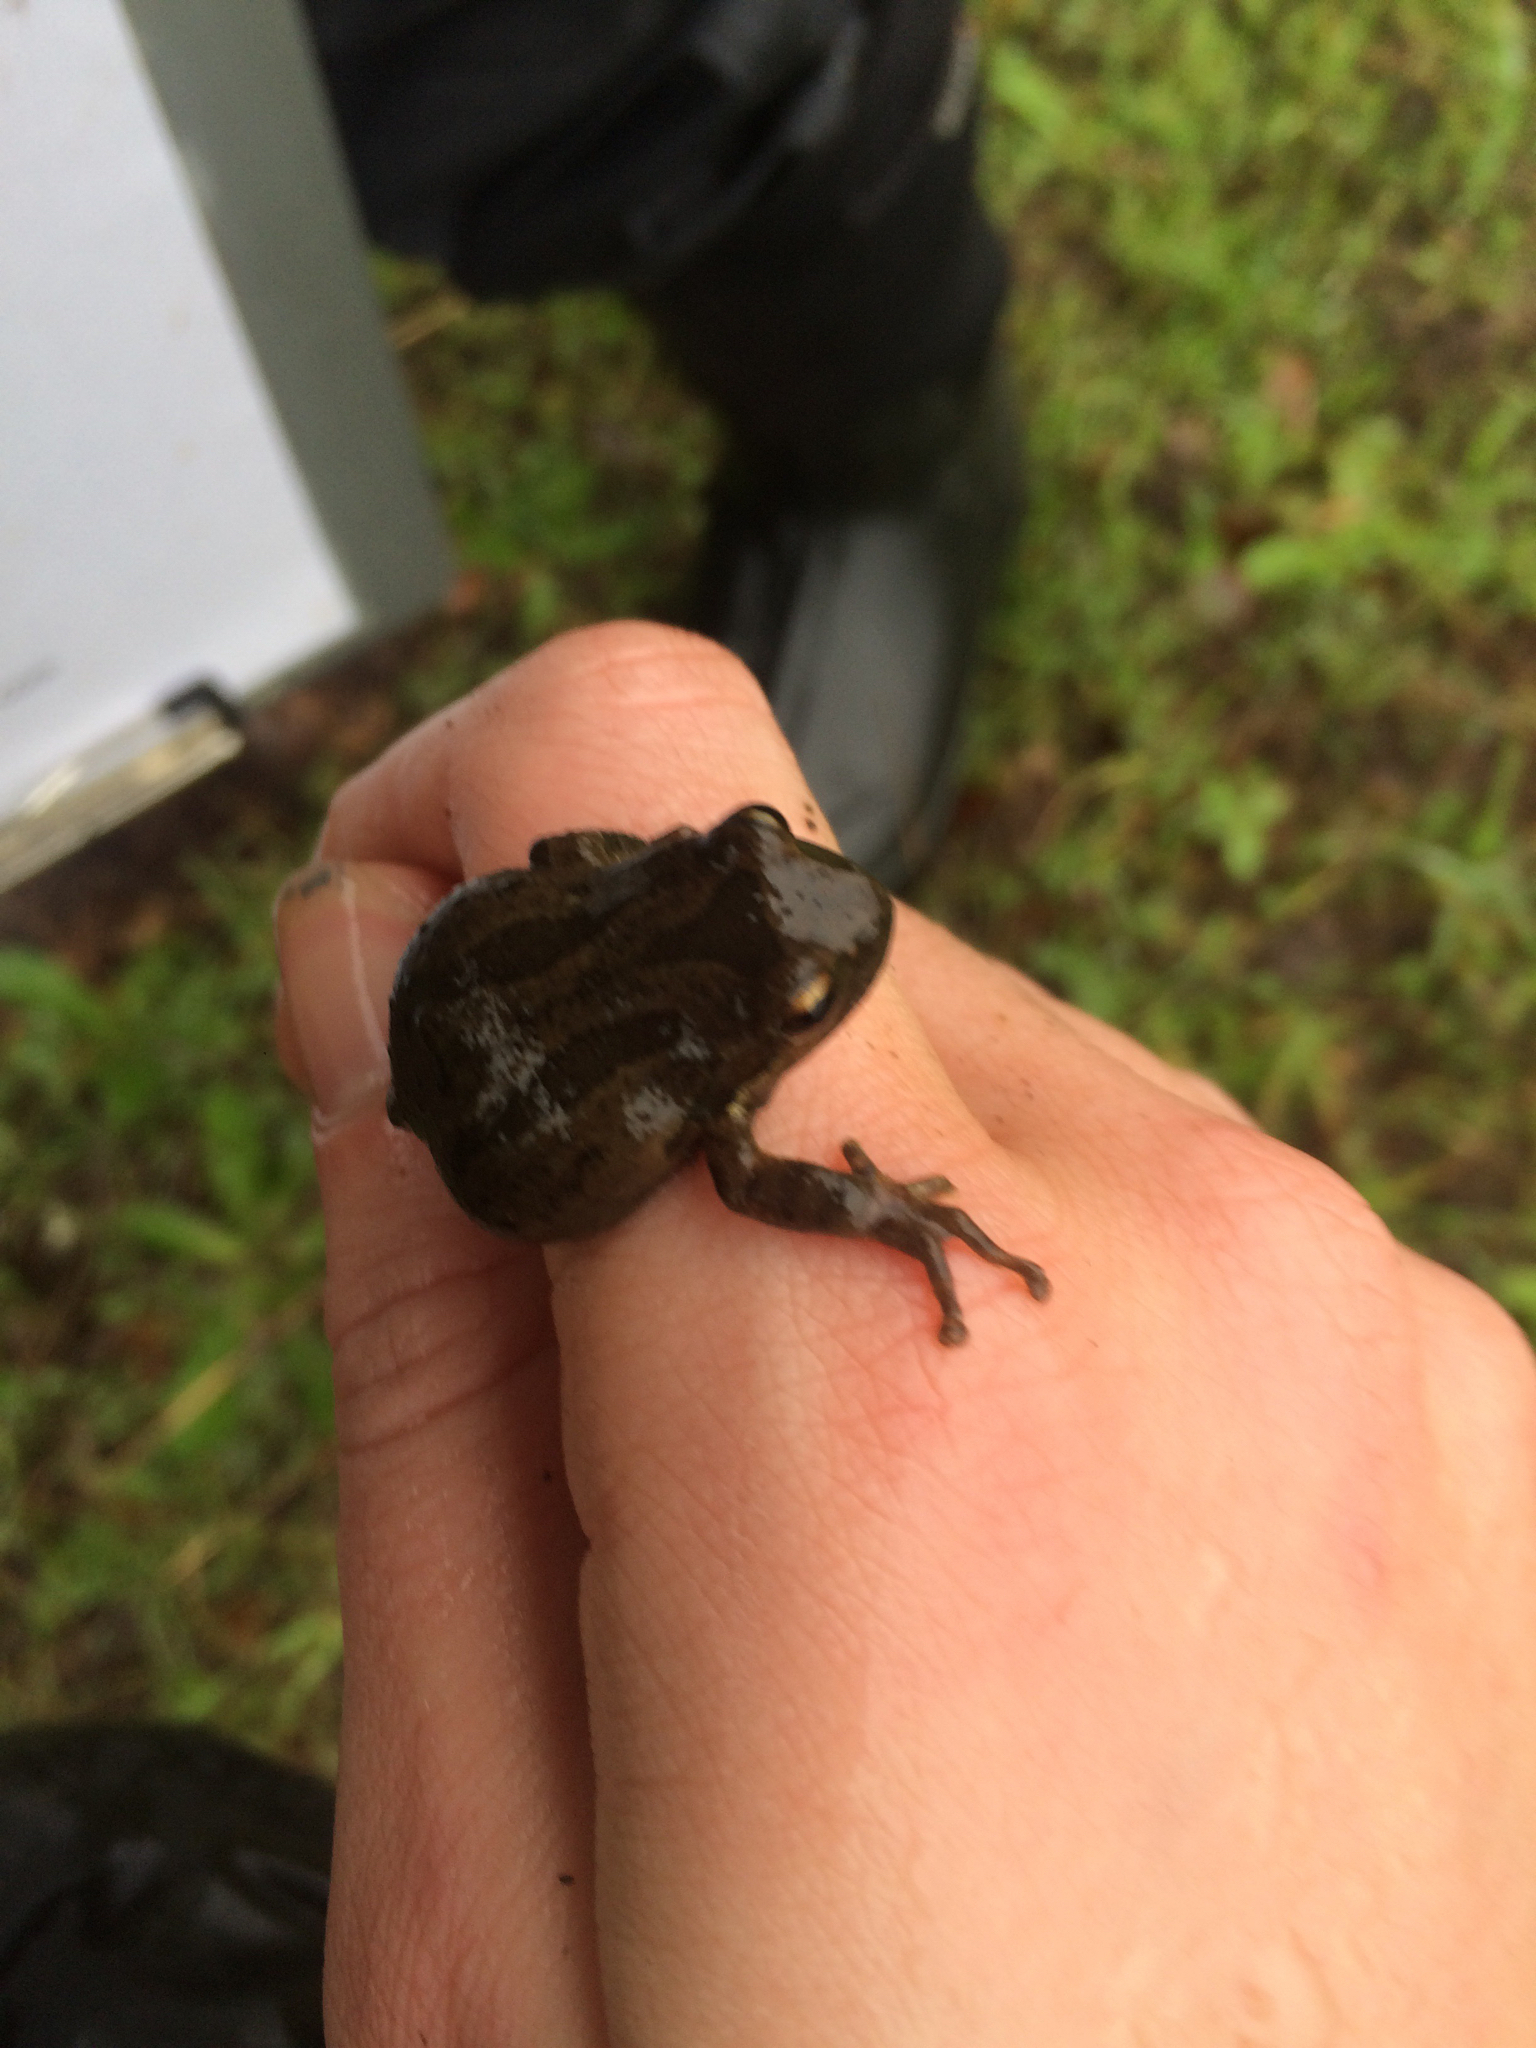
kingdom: Animalia
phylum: Chordata
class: Amphibia
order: Anura
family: Hylidae
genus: Pseudacris
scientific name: Pseudacris regilla
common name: Pacific chorus frog
